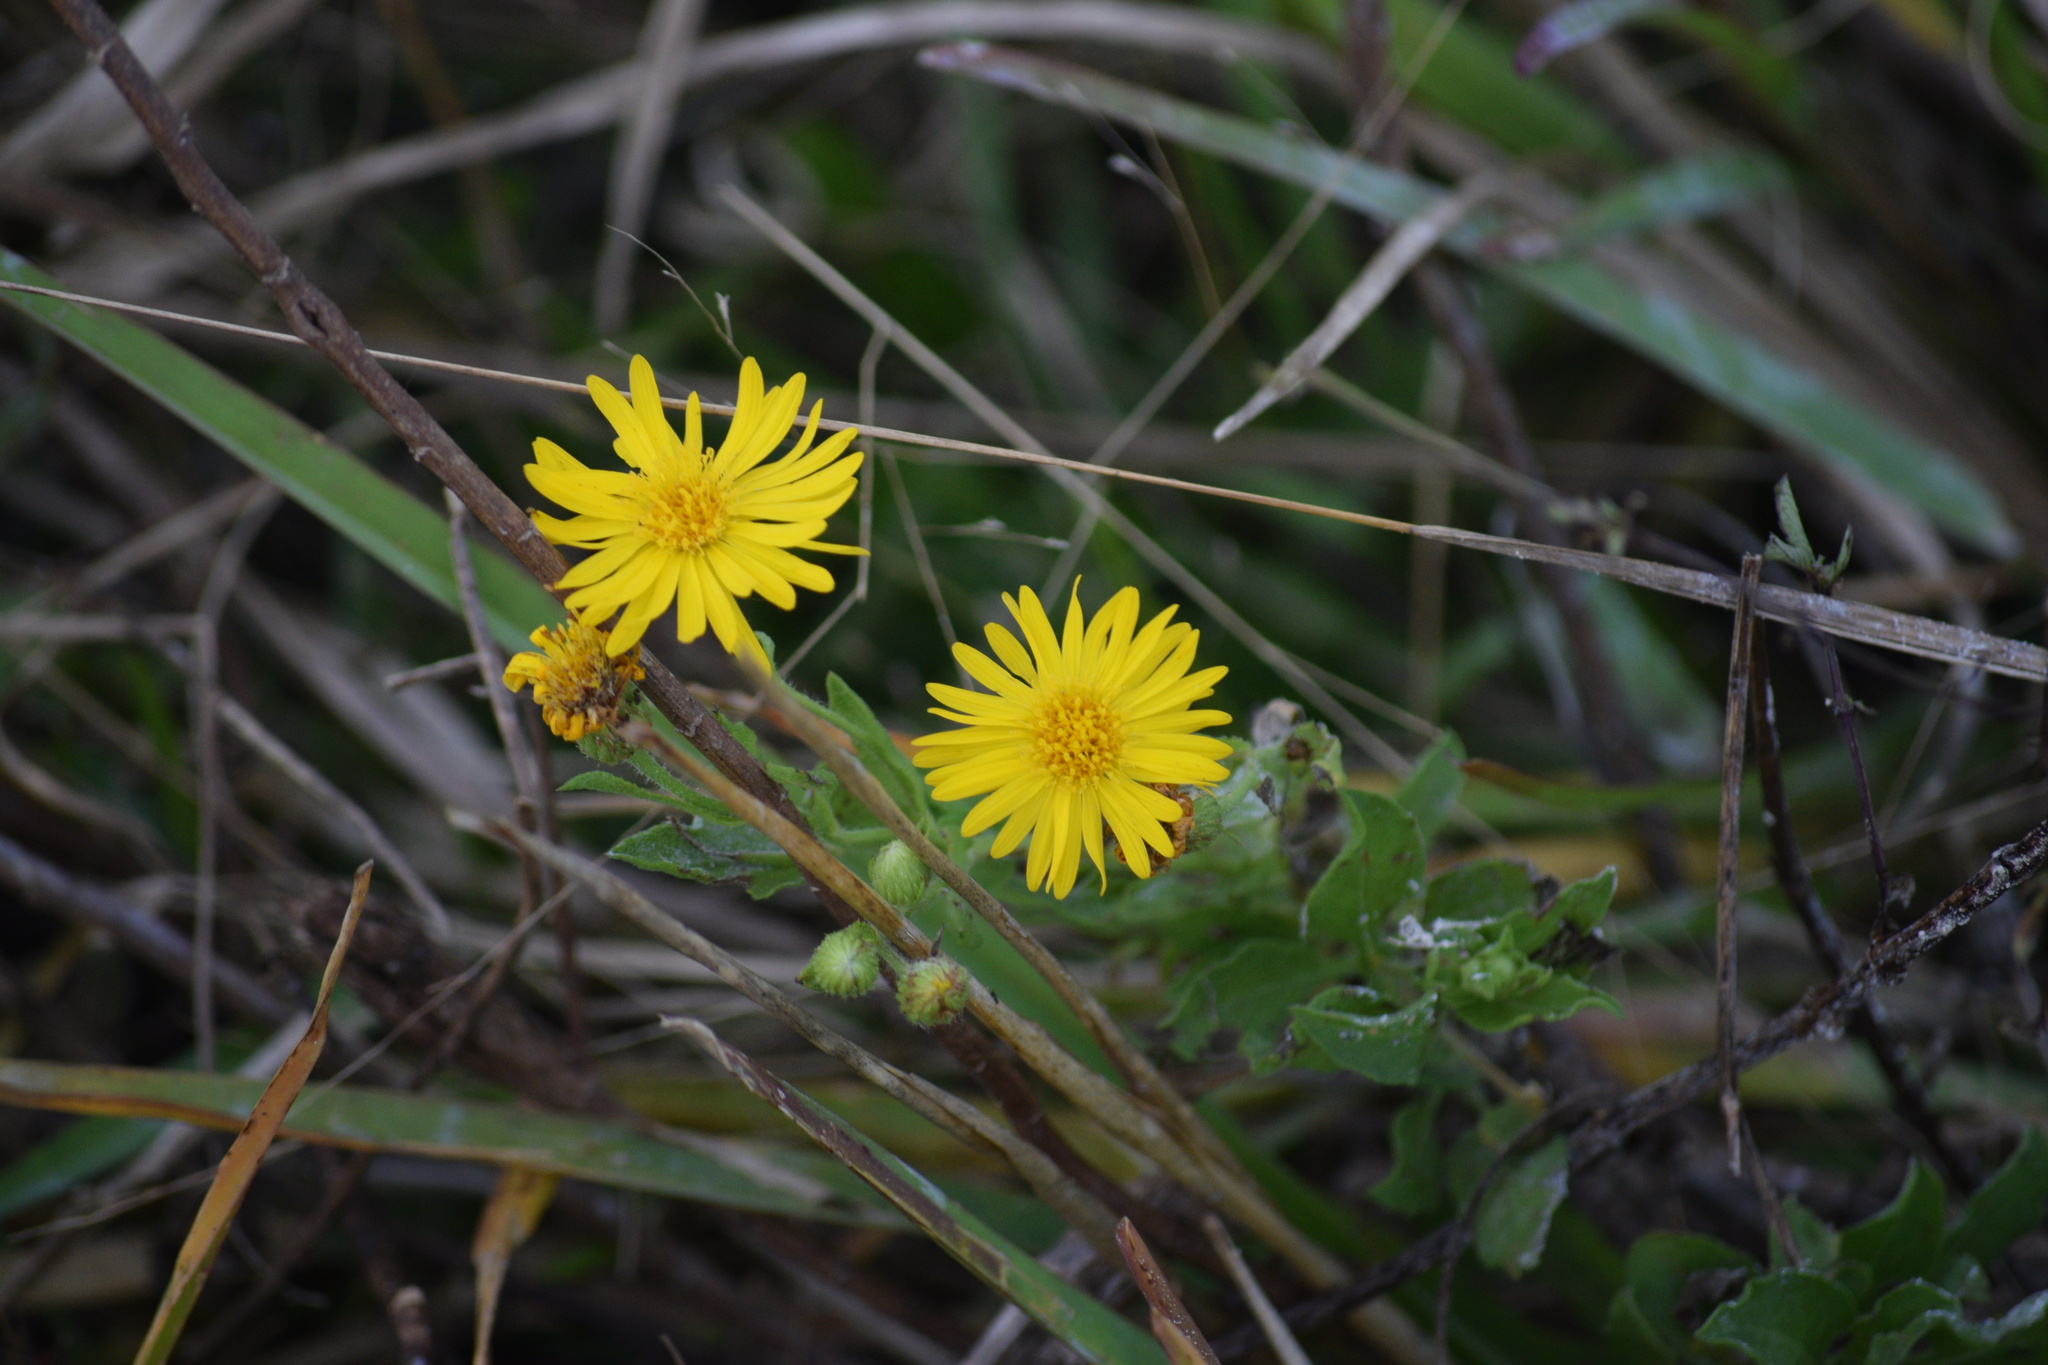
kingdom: Plantae
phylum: Tracheophyta
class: Magnoliopsida
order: Asterales
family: Asteraceae
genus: Heterotheca
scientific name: Heterotheca subaxillaris
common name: Camphorweed
